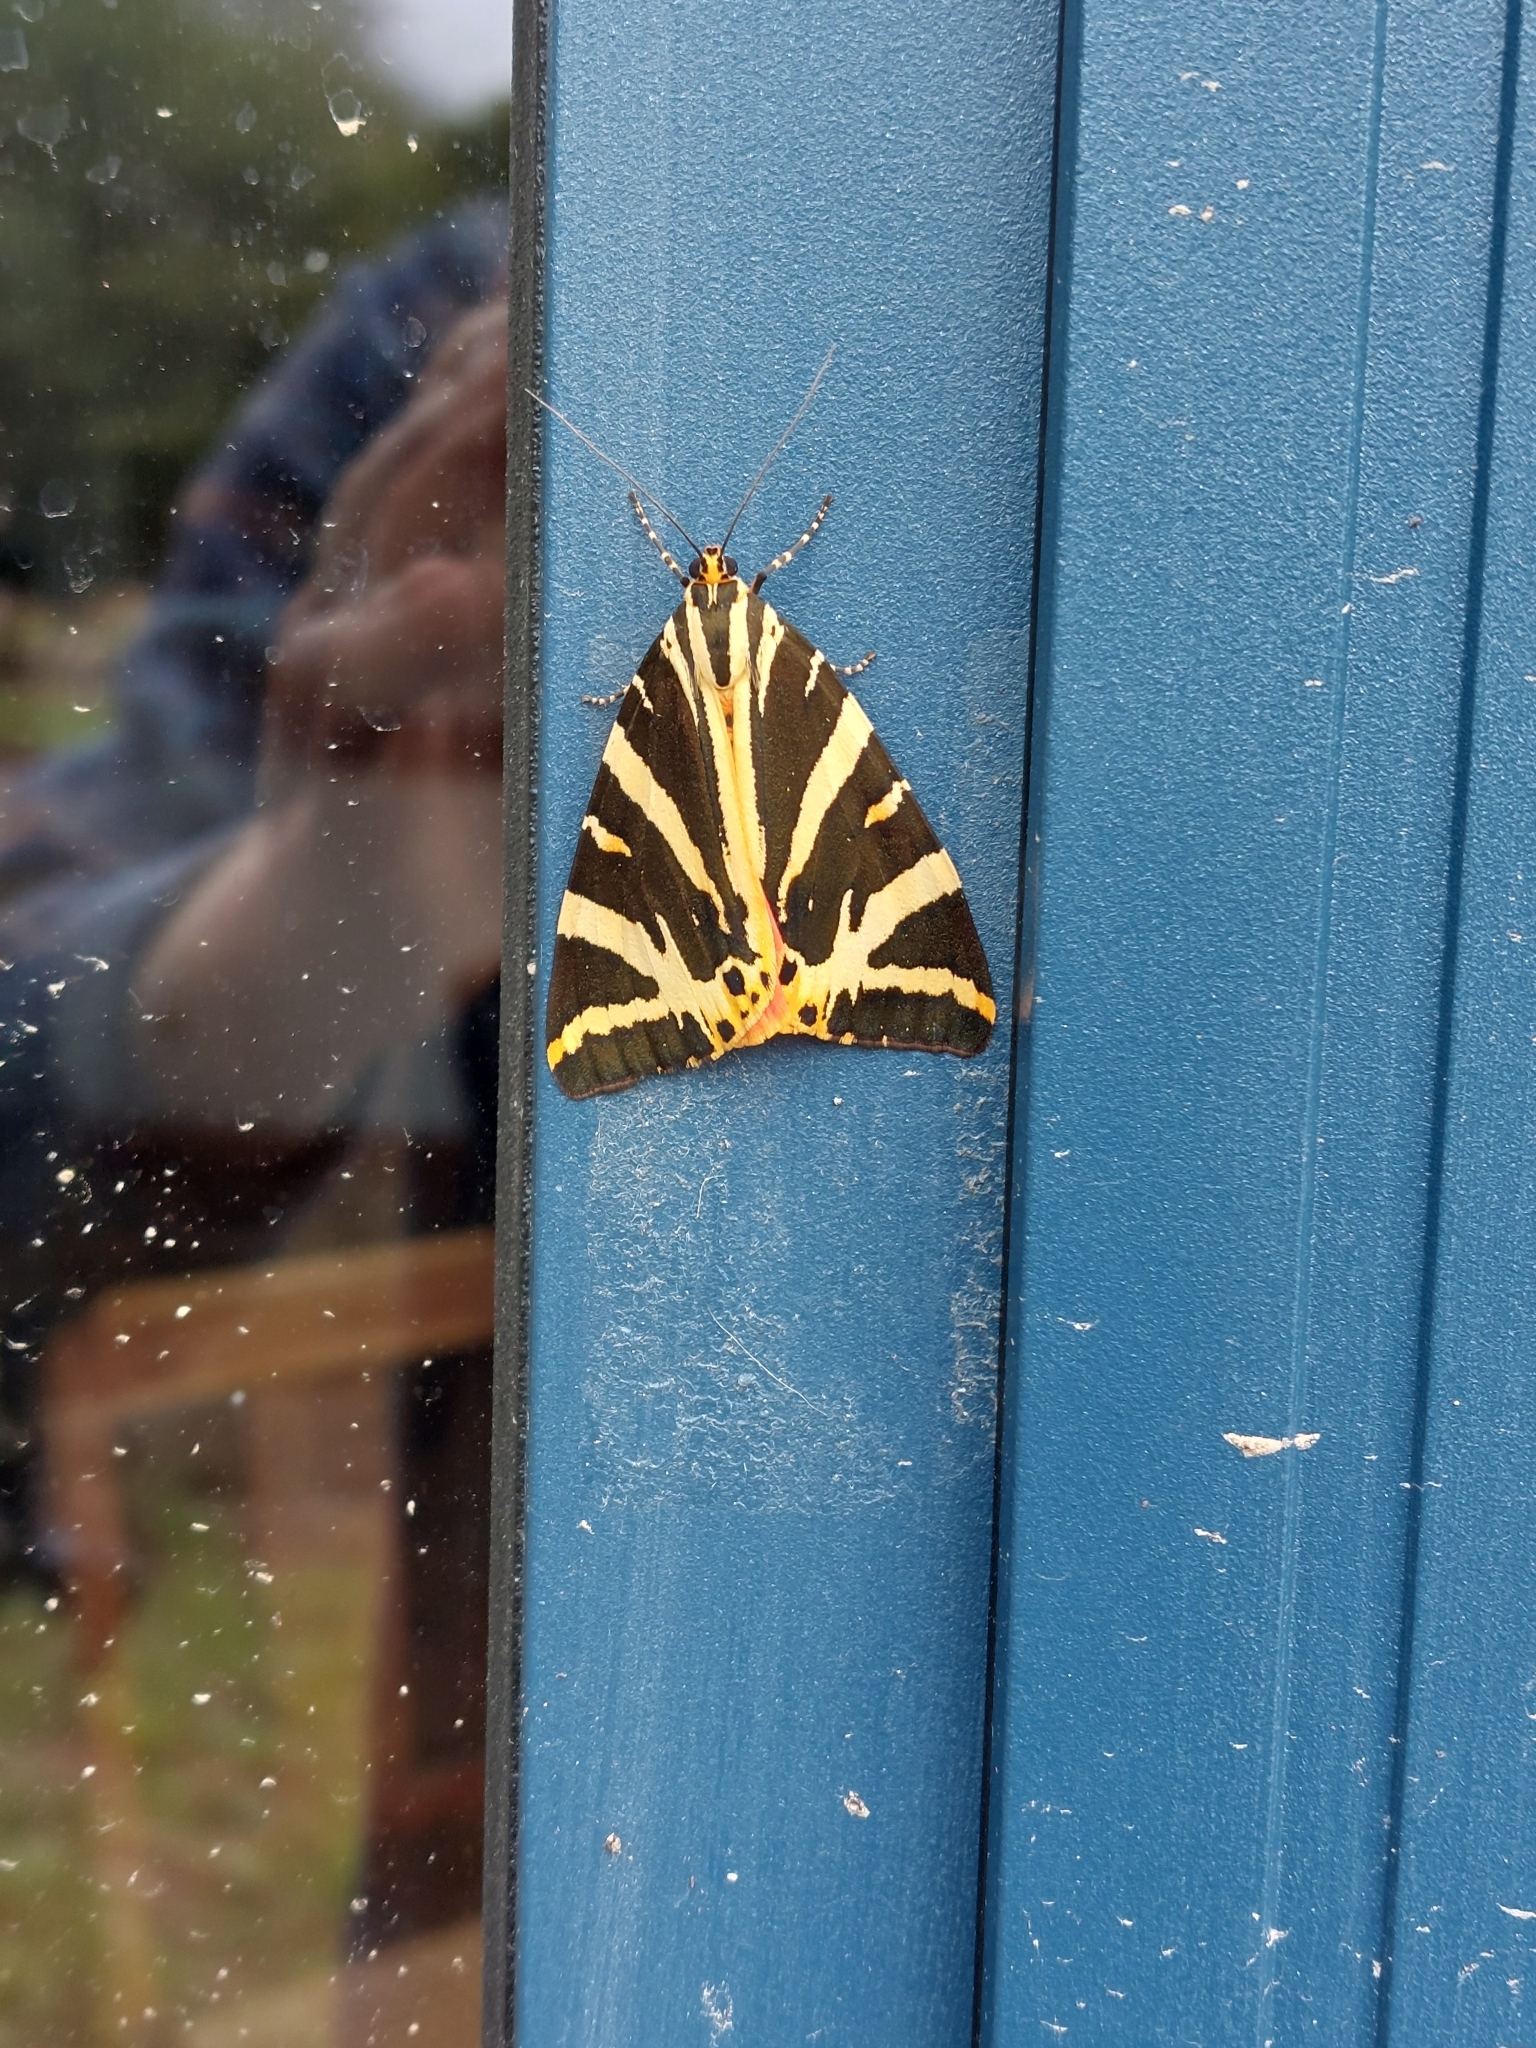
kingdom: Animalia
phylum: Arthropoda
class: Insecta
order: Lepidoptera
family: Erebidae
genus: Euplagia
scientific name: Euplagia quadripunctaria
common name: Jersey tiger
